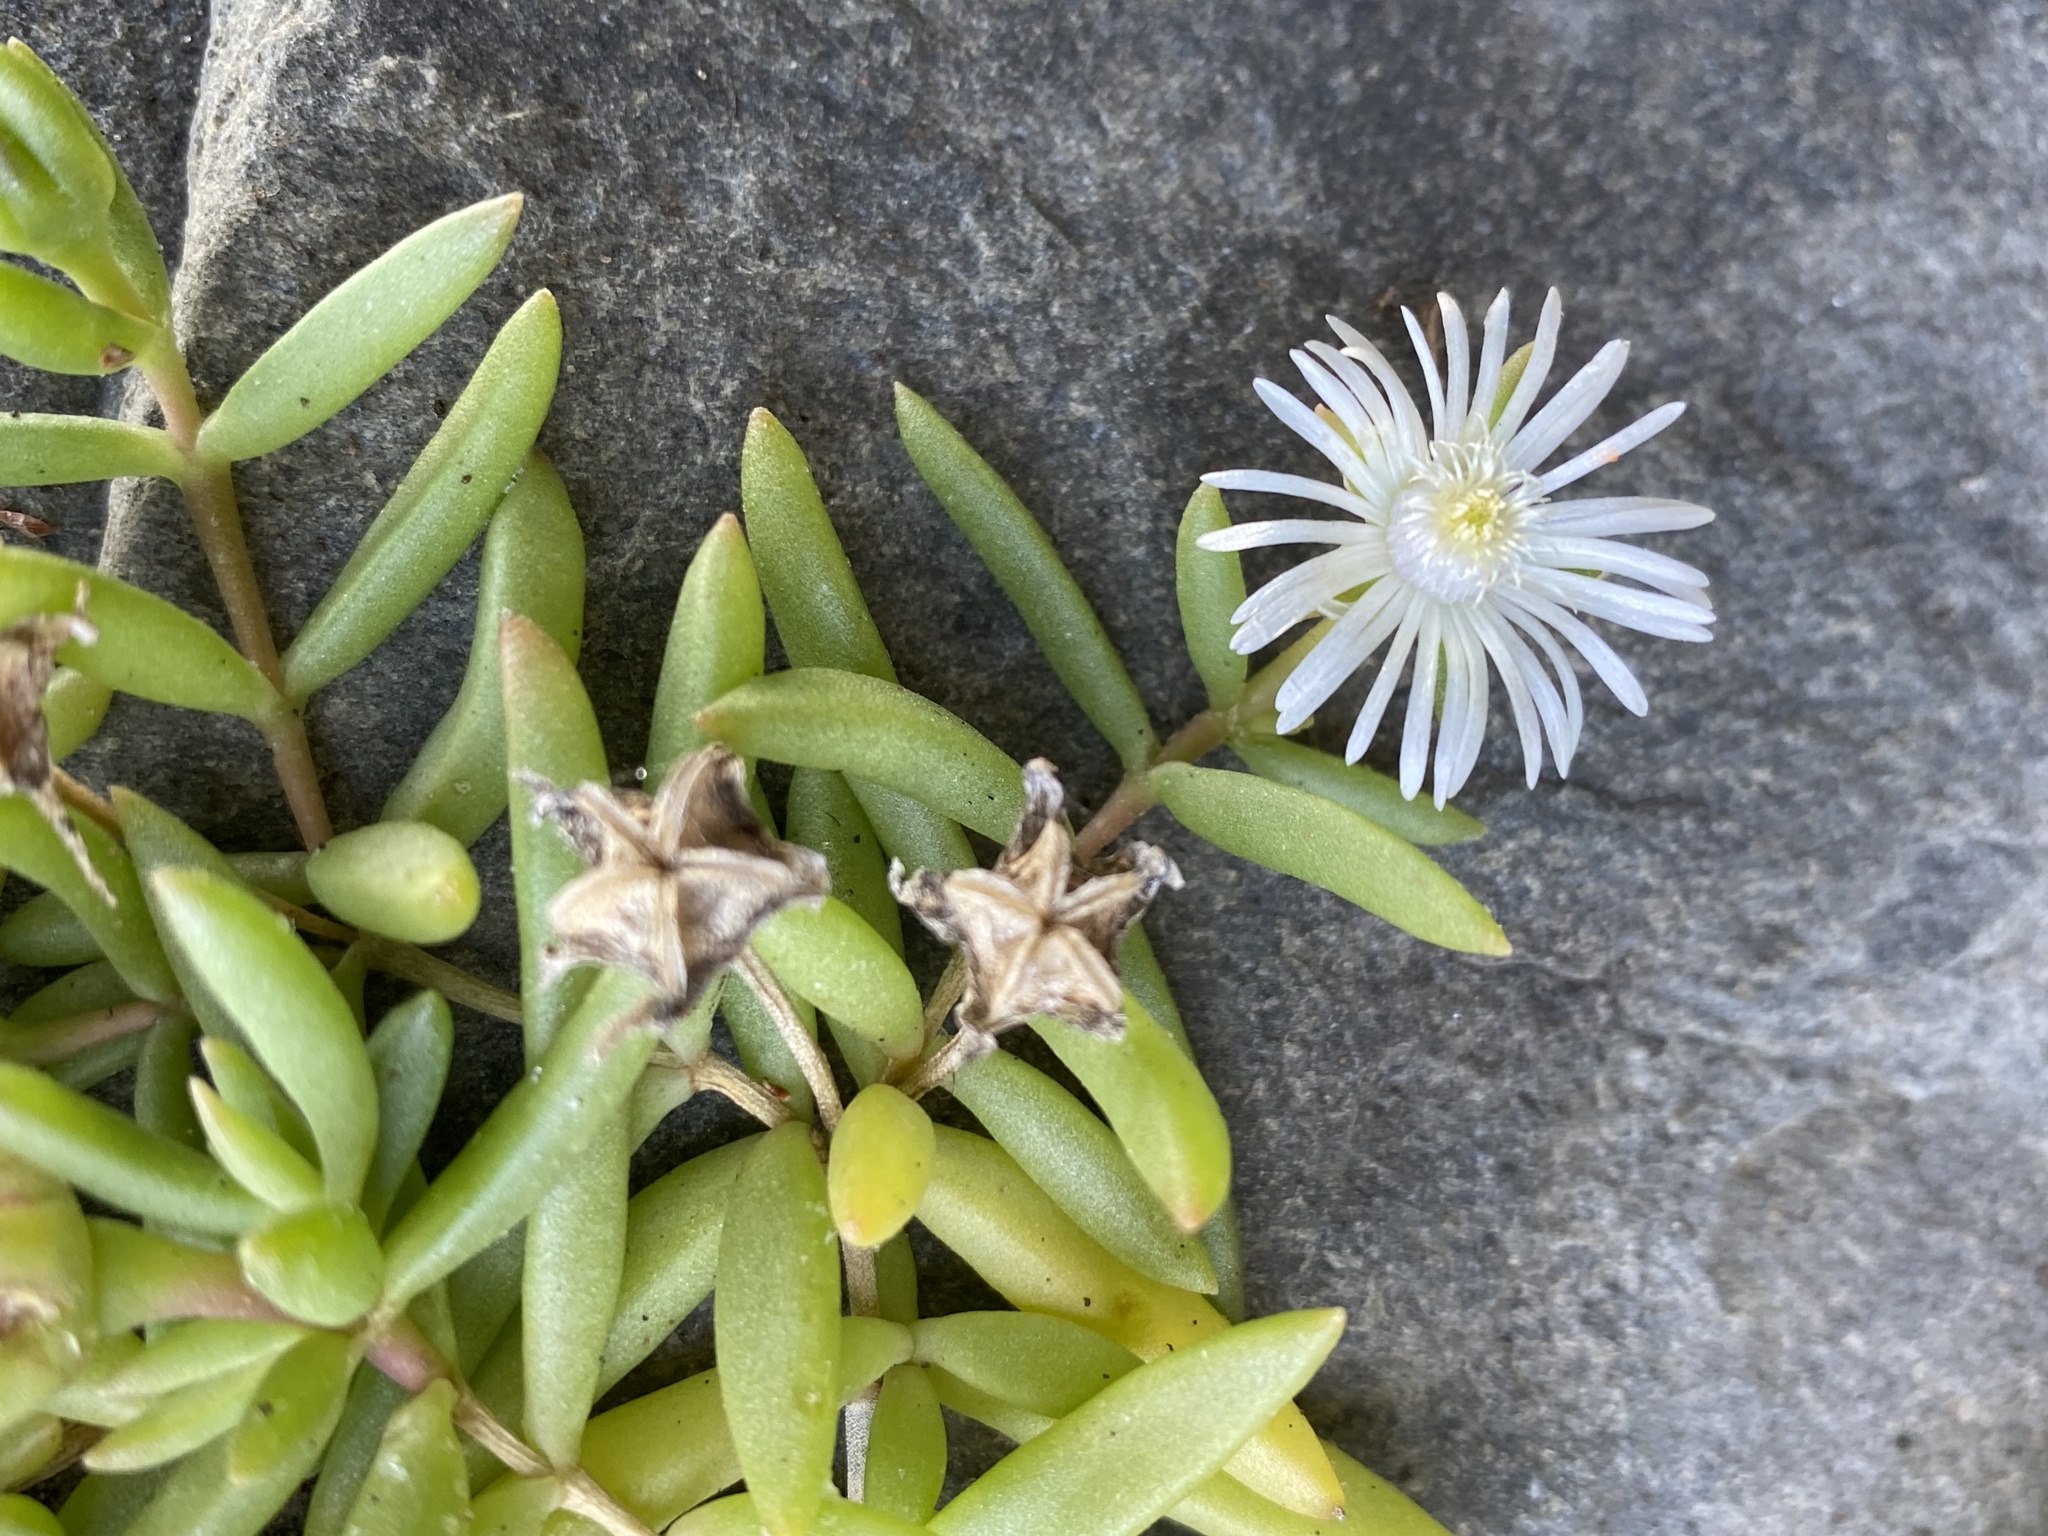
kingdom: Plantae
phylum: Tracheophyta
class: Magnoliopsida
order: Caryophyllales
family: Aizoaceae
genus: Delosperma
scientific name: Delosperma caespitosum
